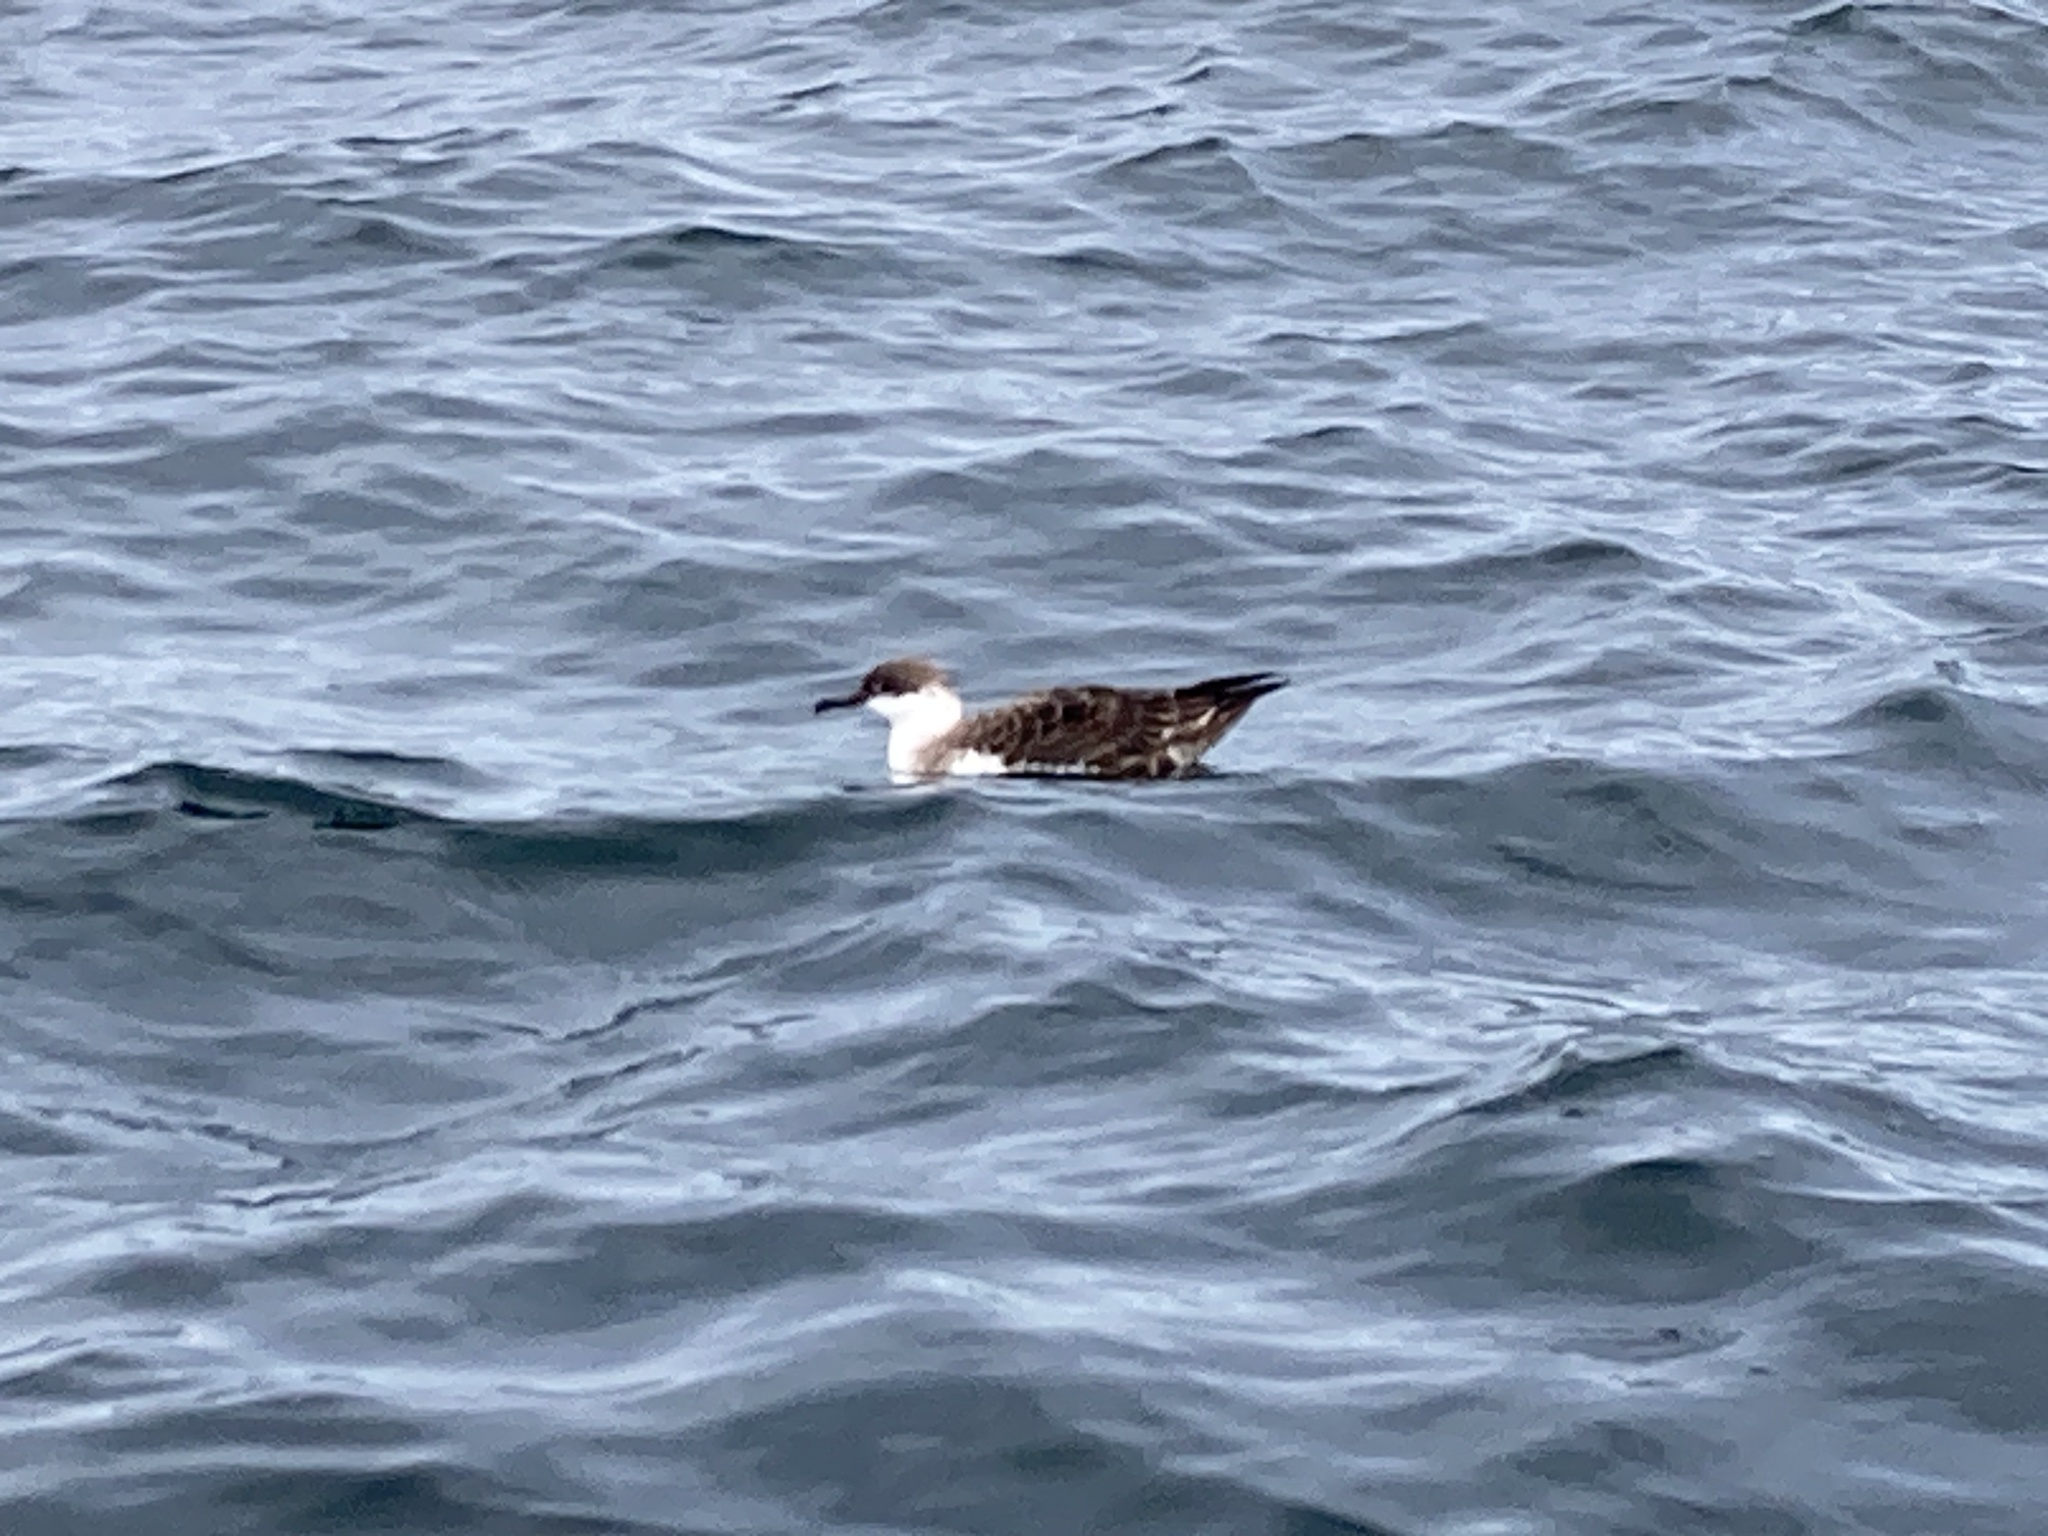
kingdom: Animalia
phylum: Chordata
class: Aves
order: Procellariiformes
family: Procellariidae
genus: Puffinus
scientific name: Puffinus gravis
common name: Great shearwater
